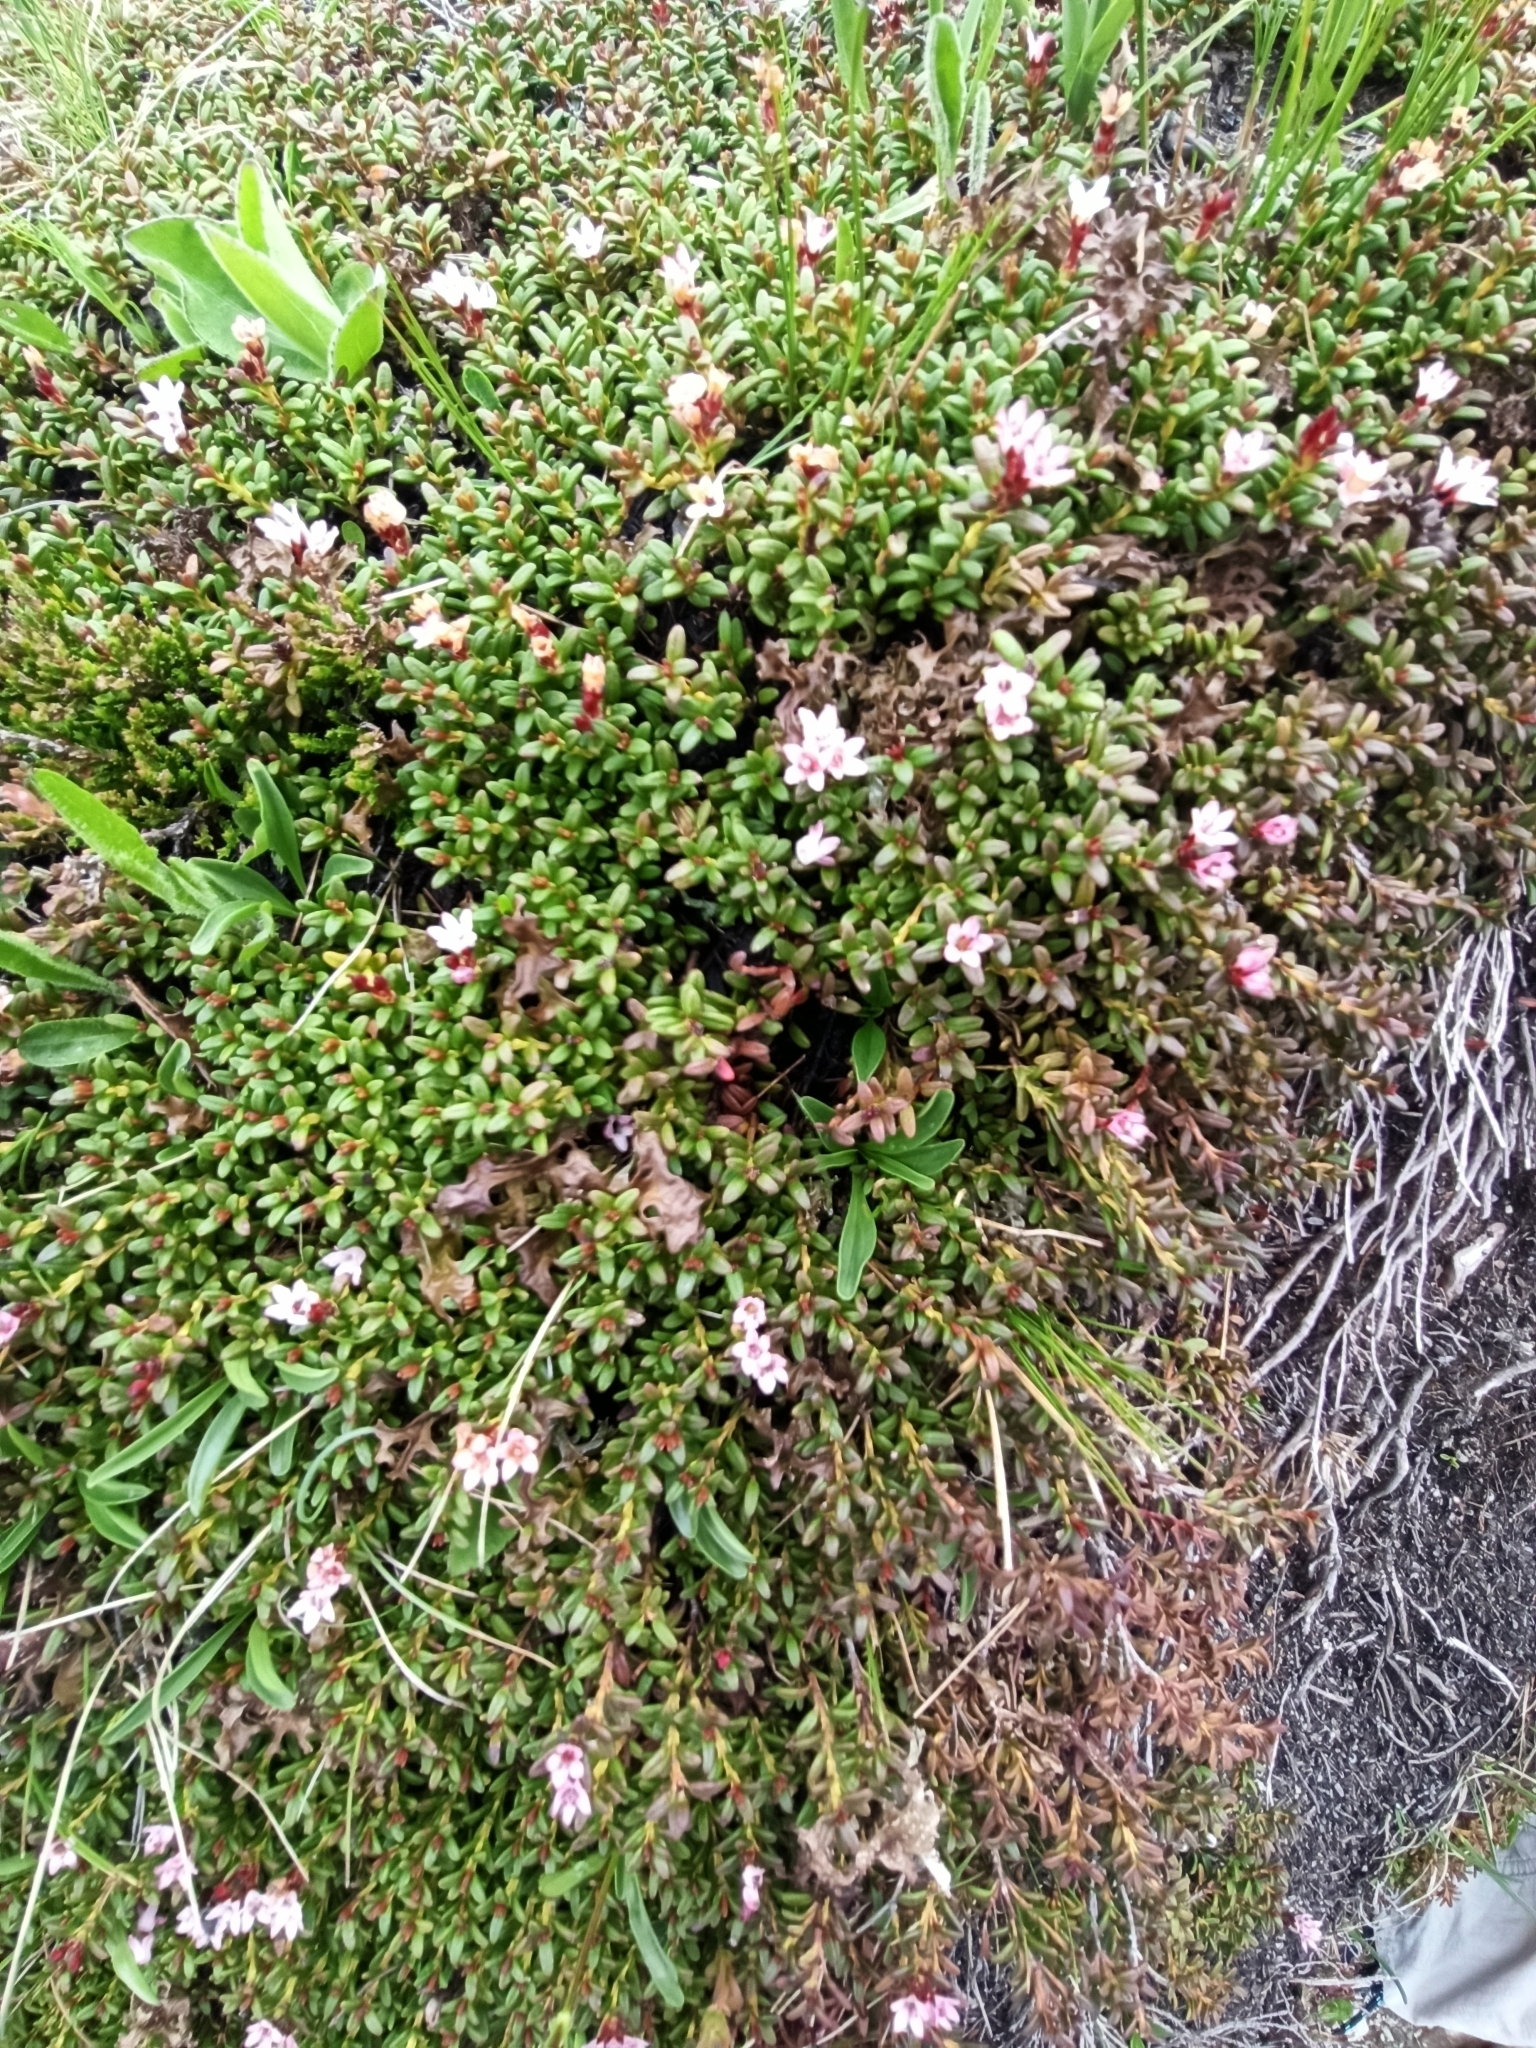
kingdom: Plantae
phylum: Tracheophyta
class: Magnoliopsida
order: Ericales
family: Ericaceae
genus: Kalmia
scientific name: Kalmia procumbens
